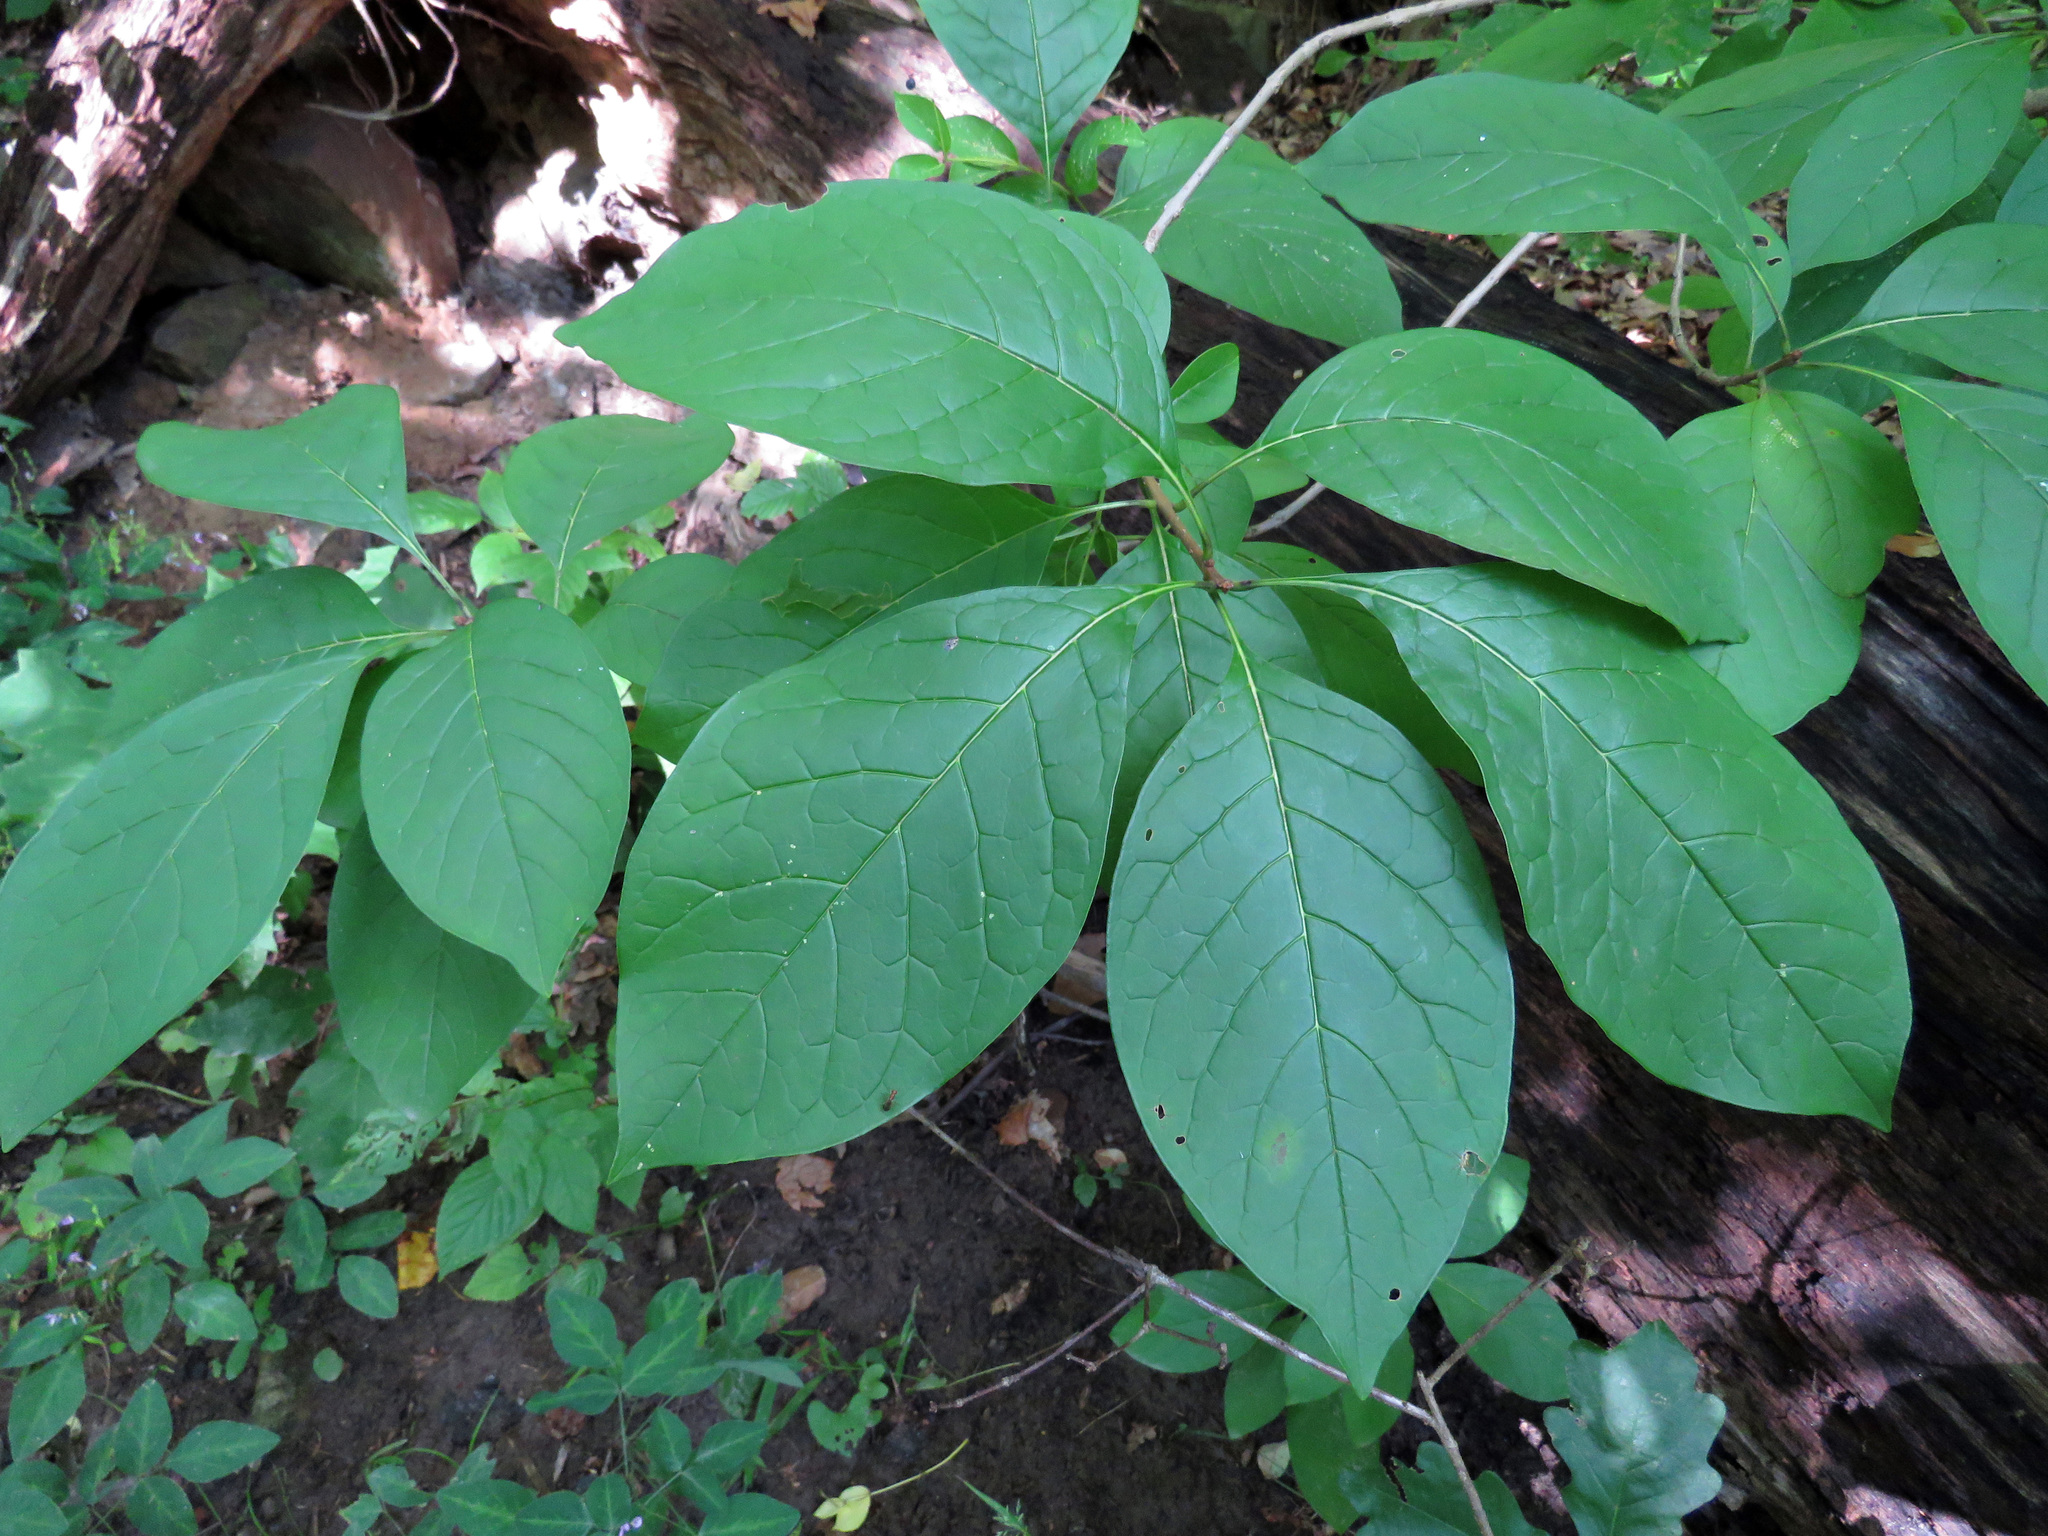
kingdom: Plantae
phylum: Tracheophyta
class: Magnoliopsida
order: Lamiales
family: Oleaceae
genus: Chionanthus
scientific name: Chionanthus virginicus
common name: American fringetree
